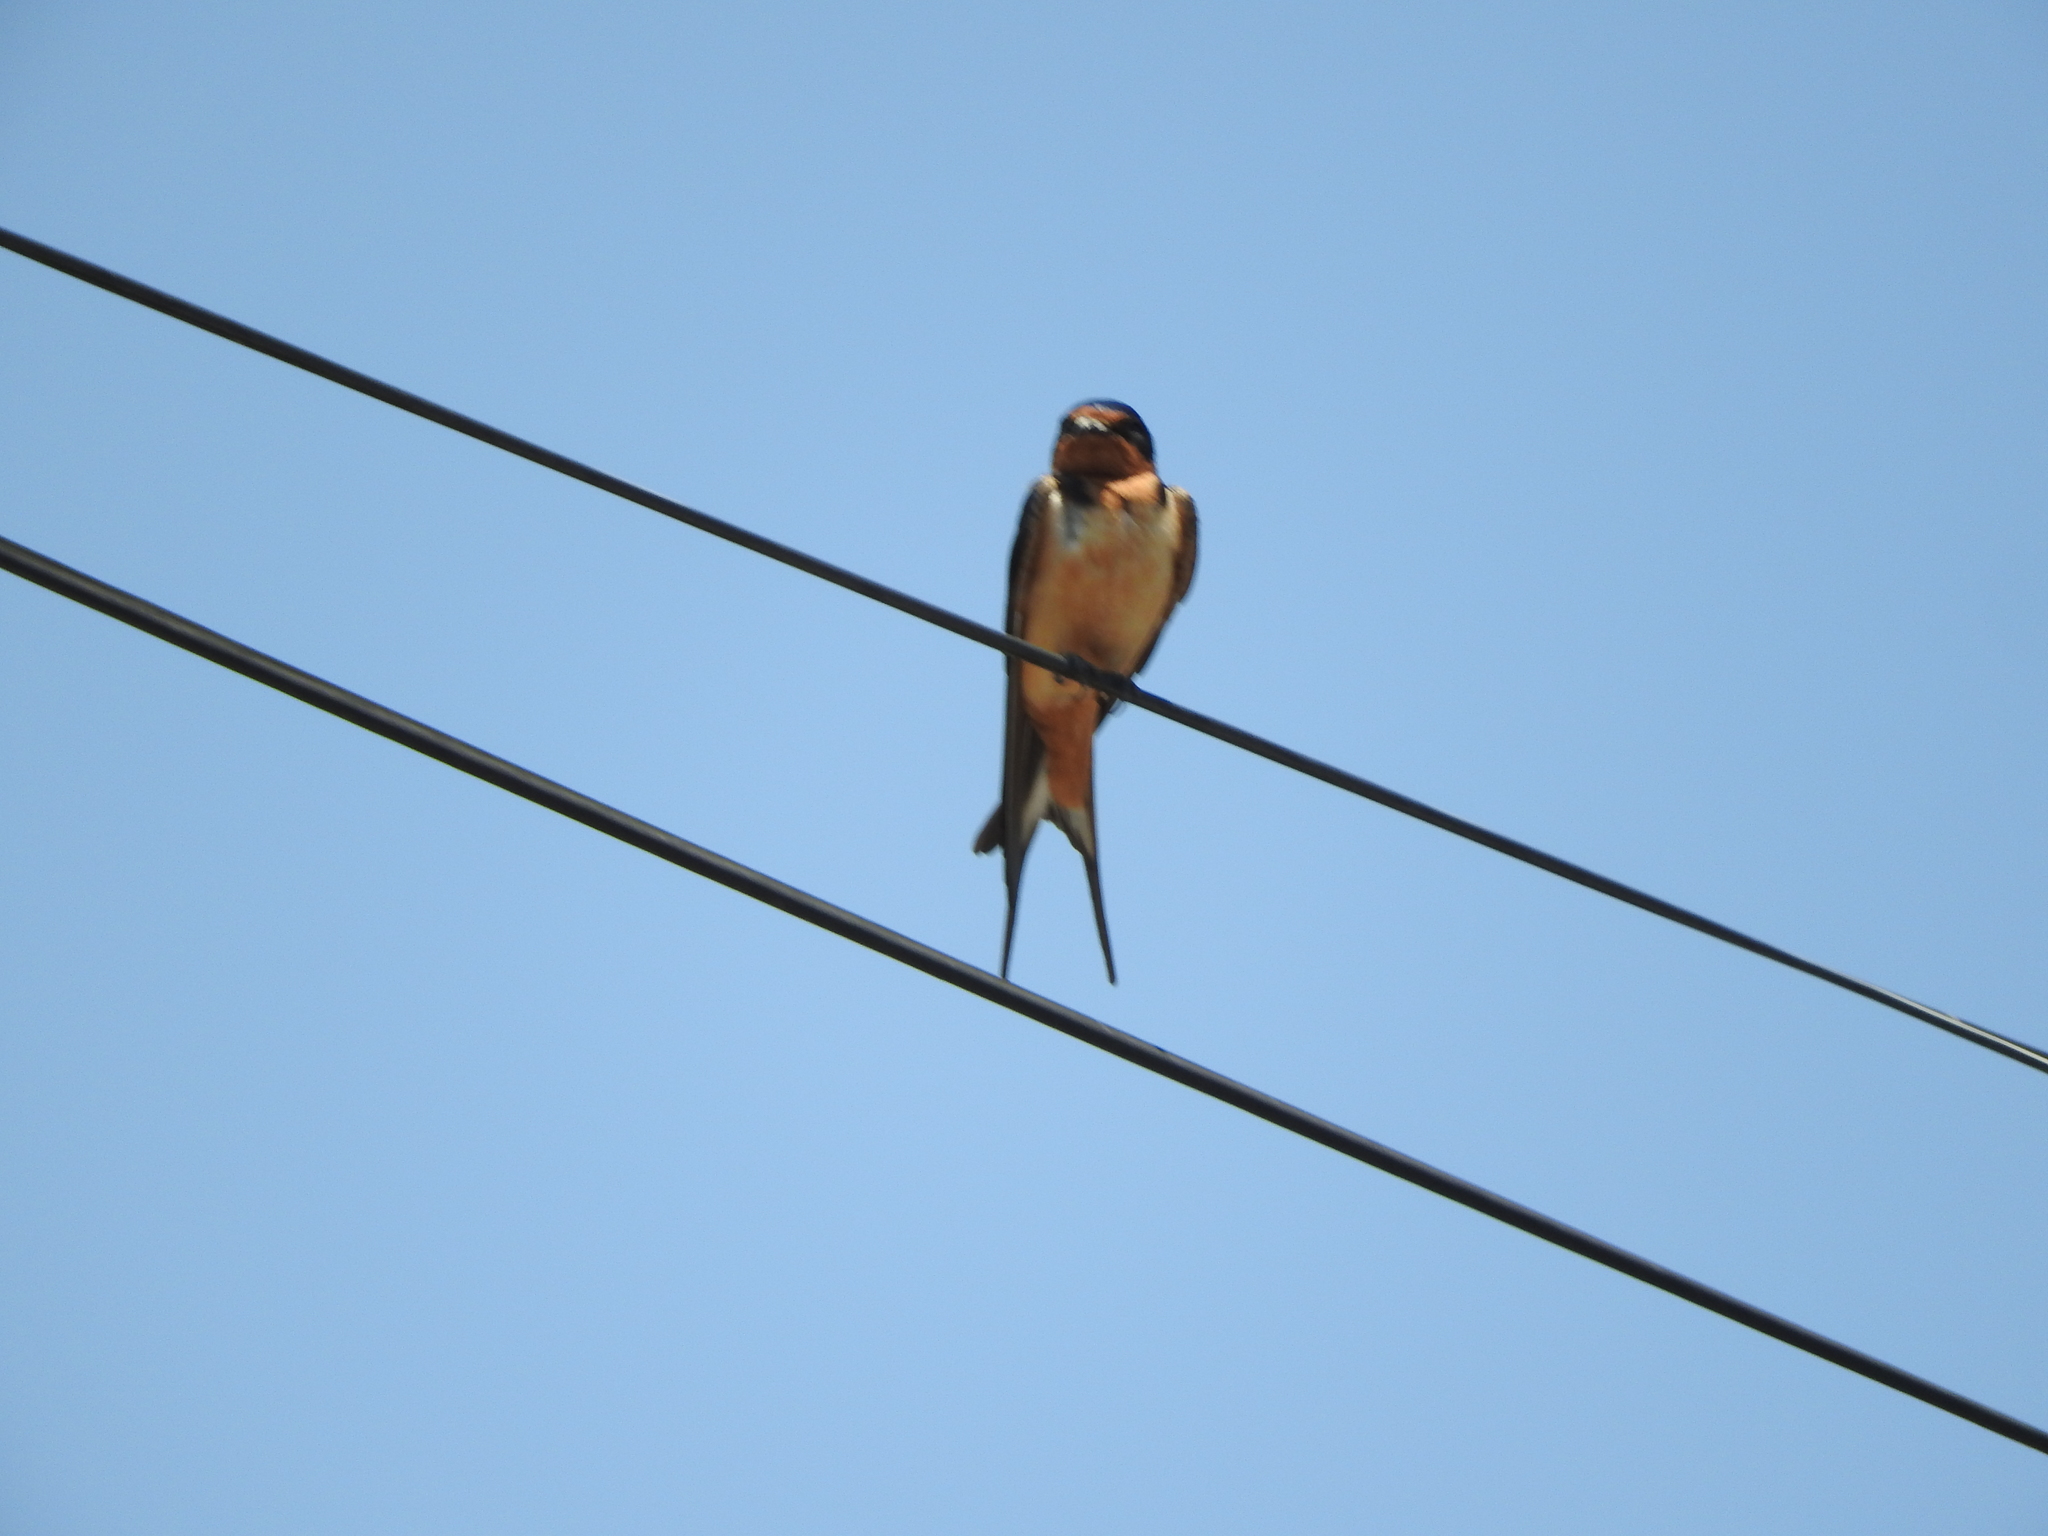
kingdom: Animalia
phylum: Chordata
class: Aves
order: Passeriformes
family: Hirundinidae
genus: Hirundo
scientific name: Hirundo rustica
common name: Barn swallow
